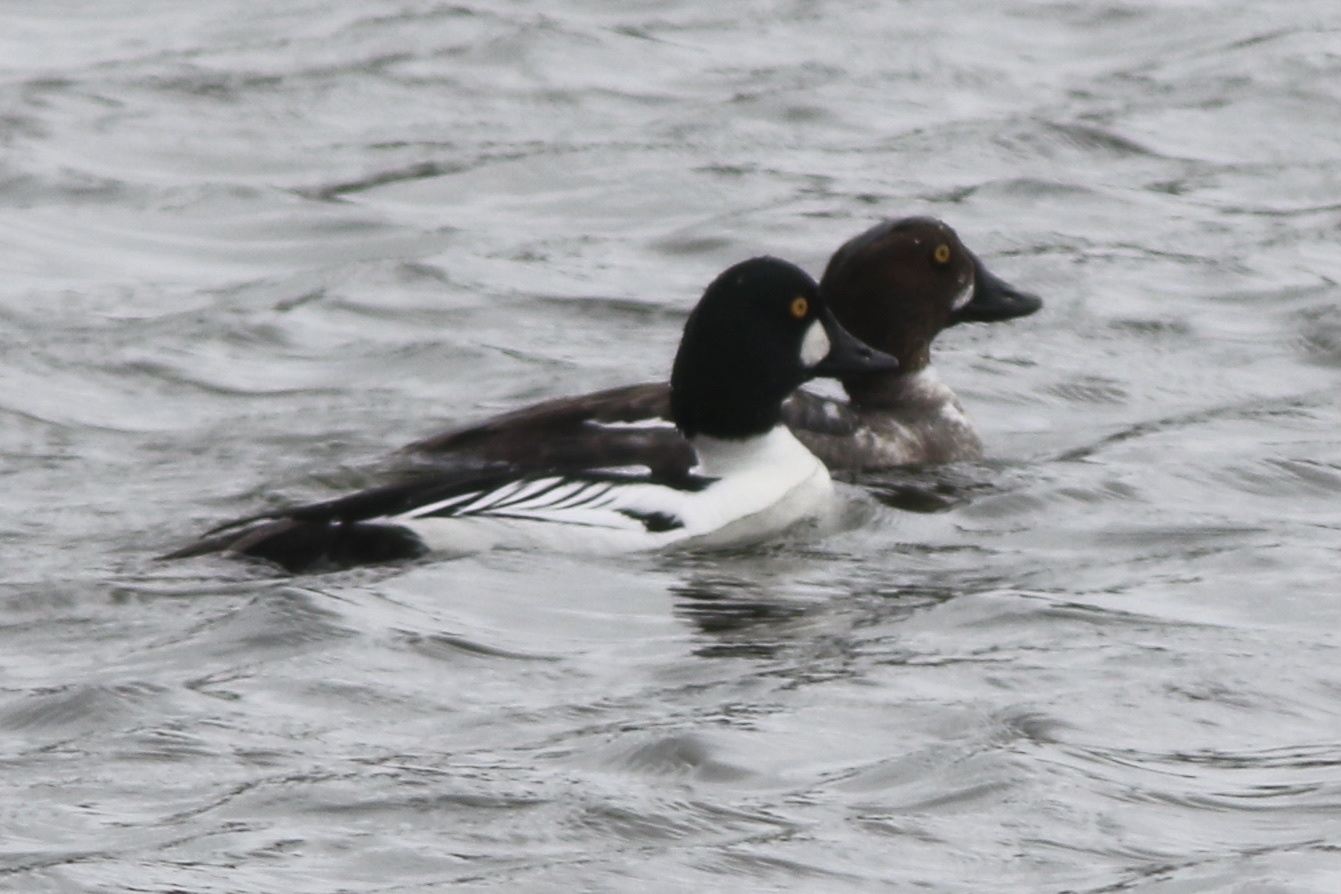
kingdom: Animalia
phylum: Chordata
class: Aves
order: Anseriformes
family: Anatidae
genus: Bucephala
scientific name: Bucephala clangula
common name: Common goldeneye
